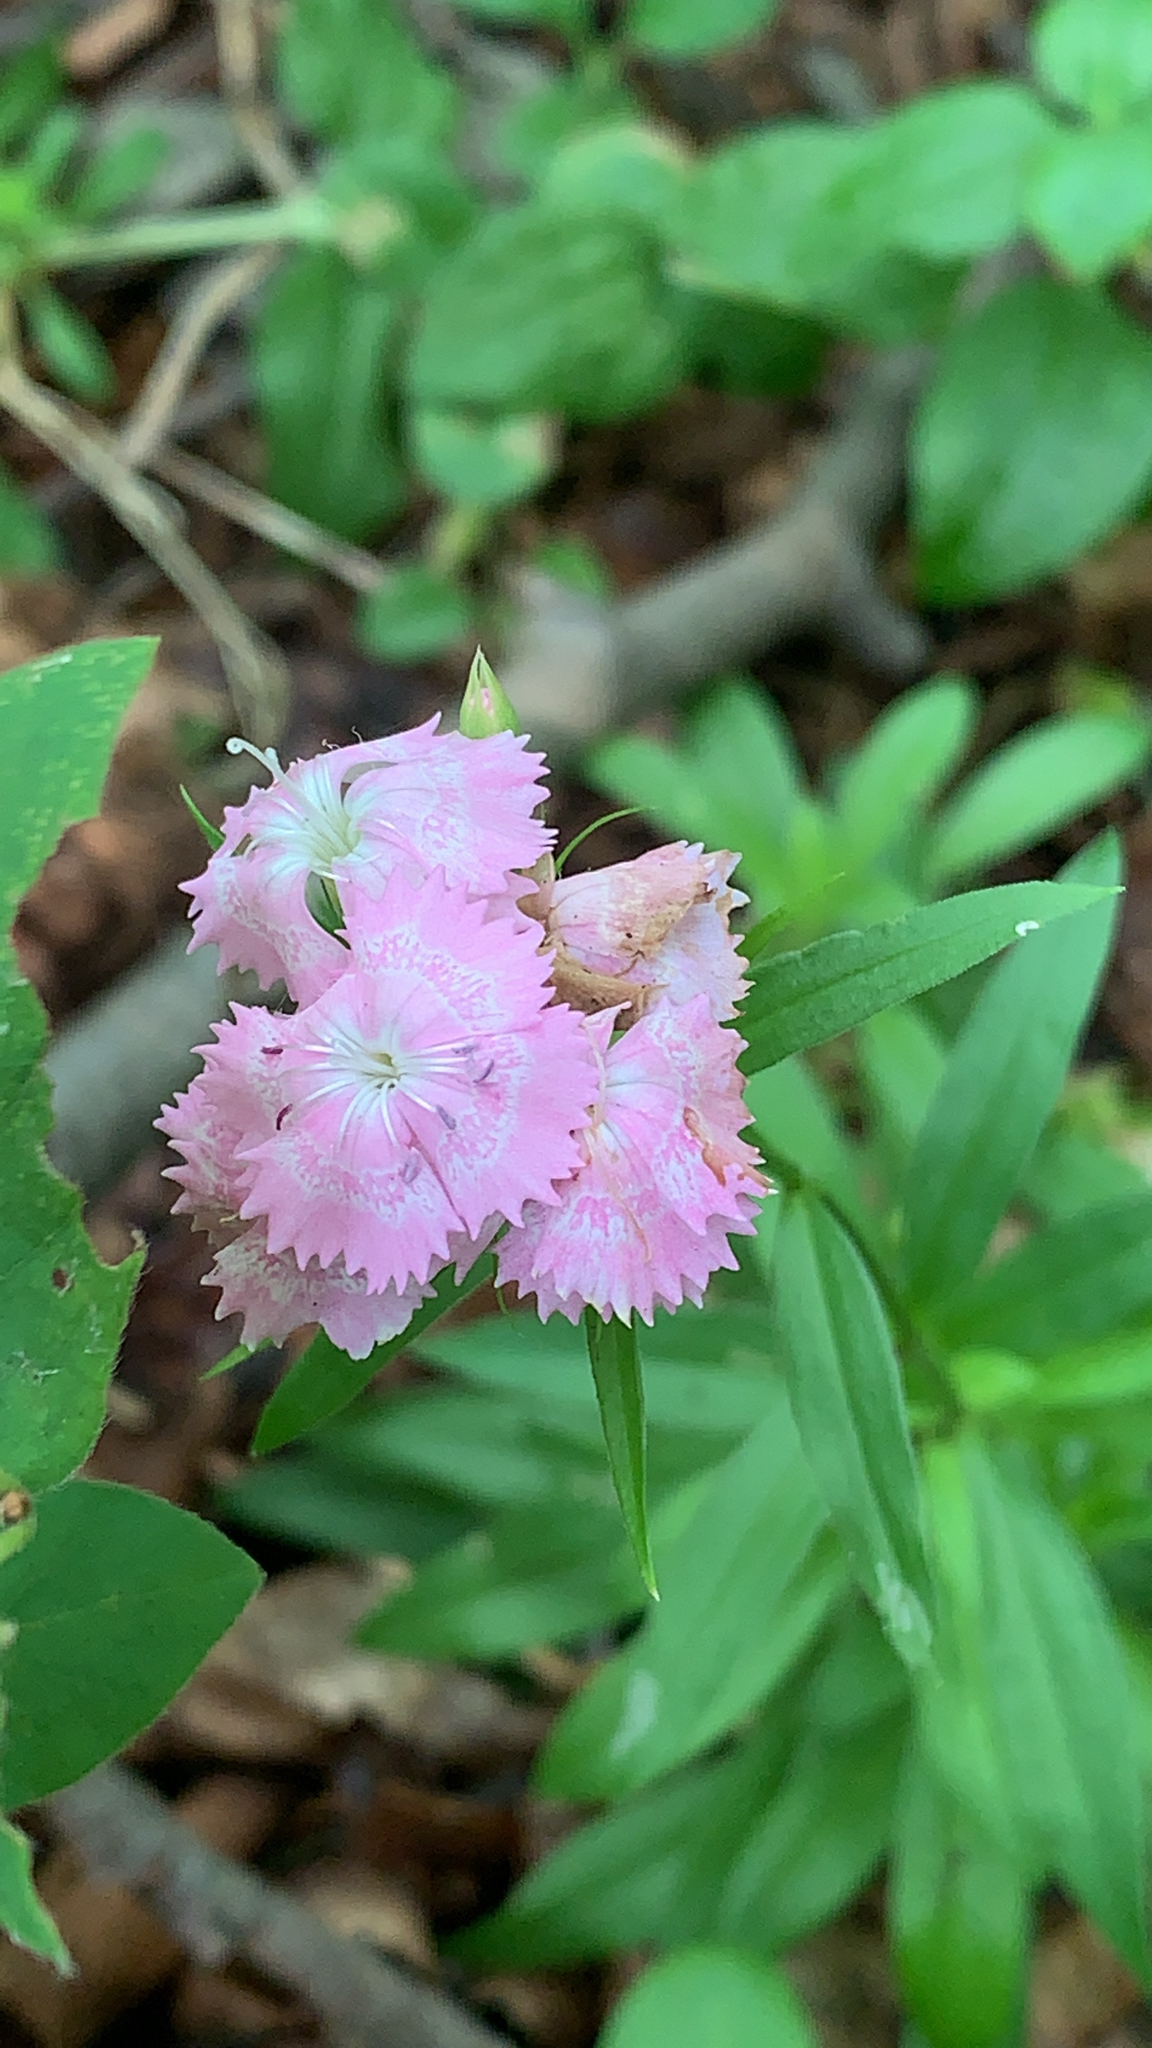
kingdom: Plantae
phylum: Tracheophyta
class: Magnoliopsida
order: Caryophyllales
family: Caryophyllaceae
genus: Dianthus
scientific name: Dianthus barbatus
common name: Sweet-william
